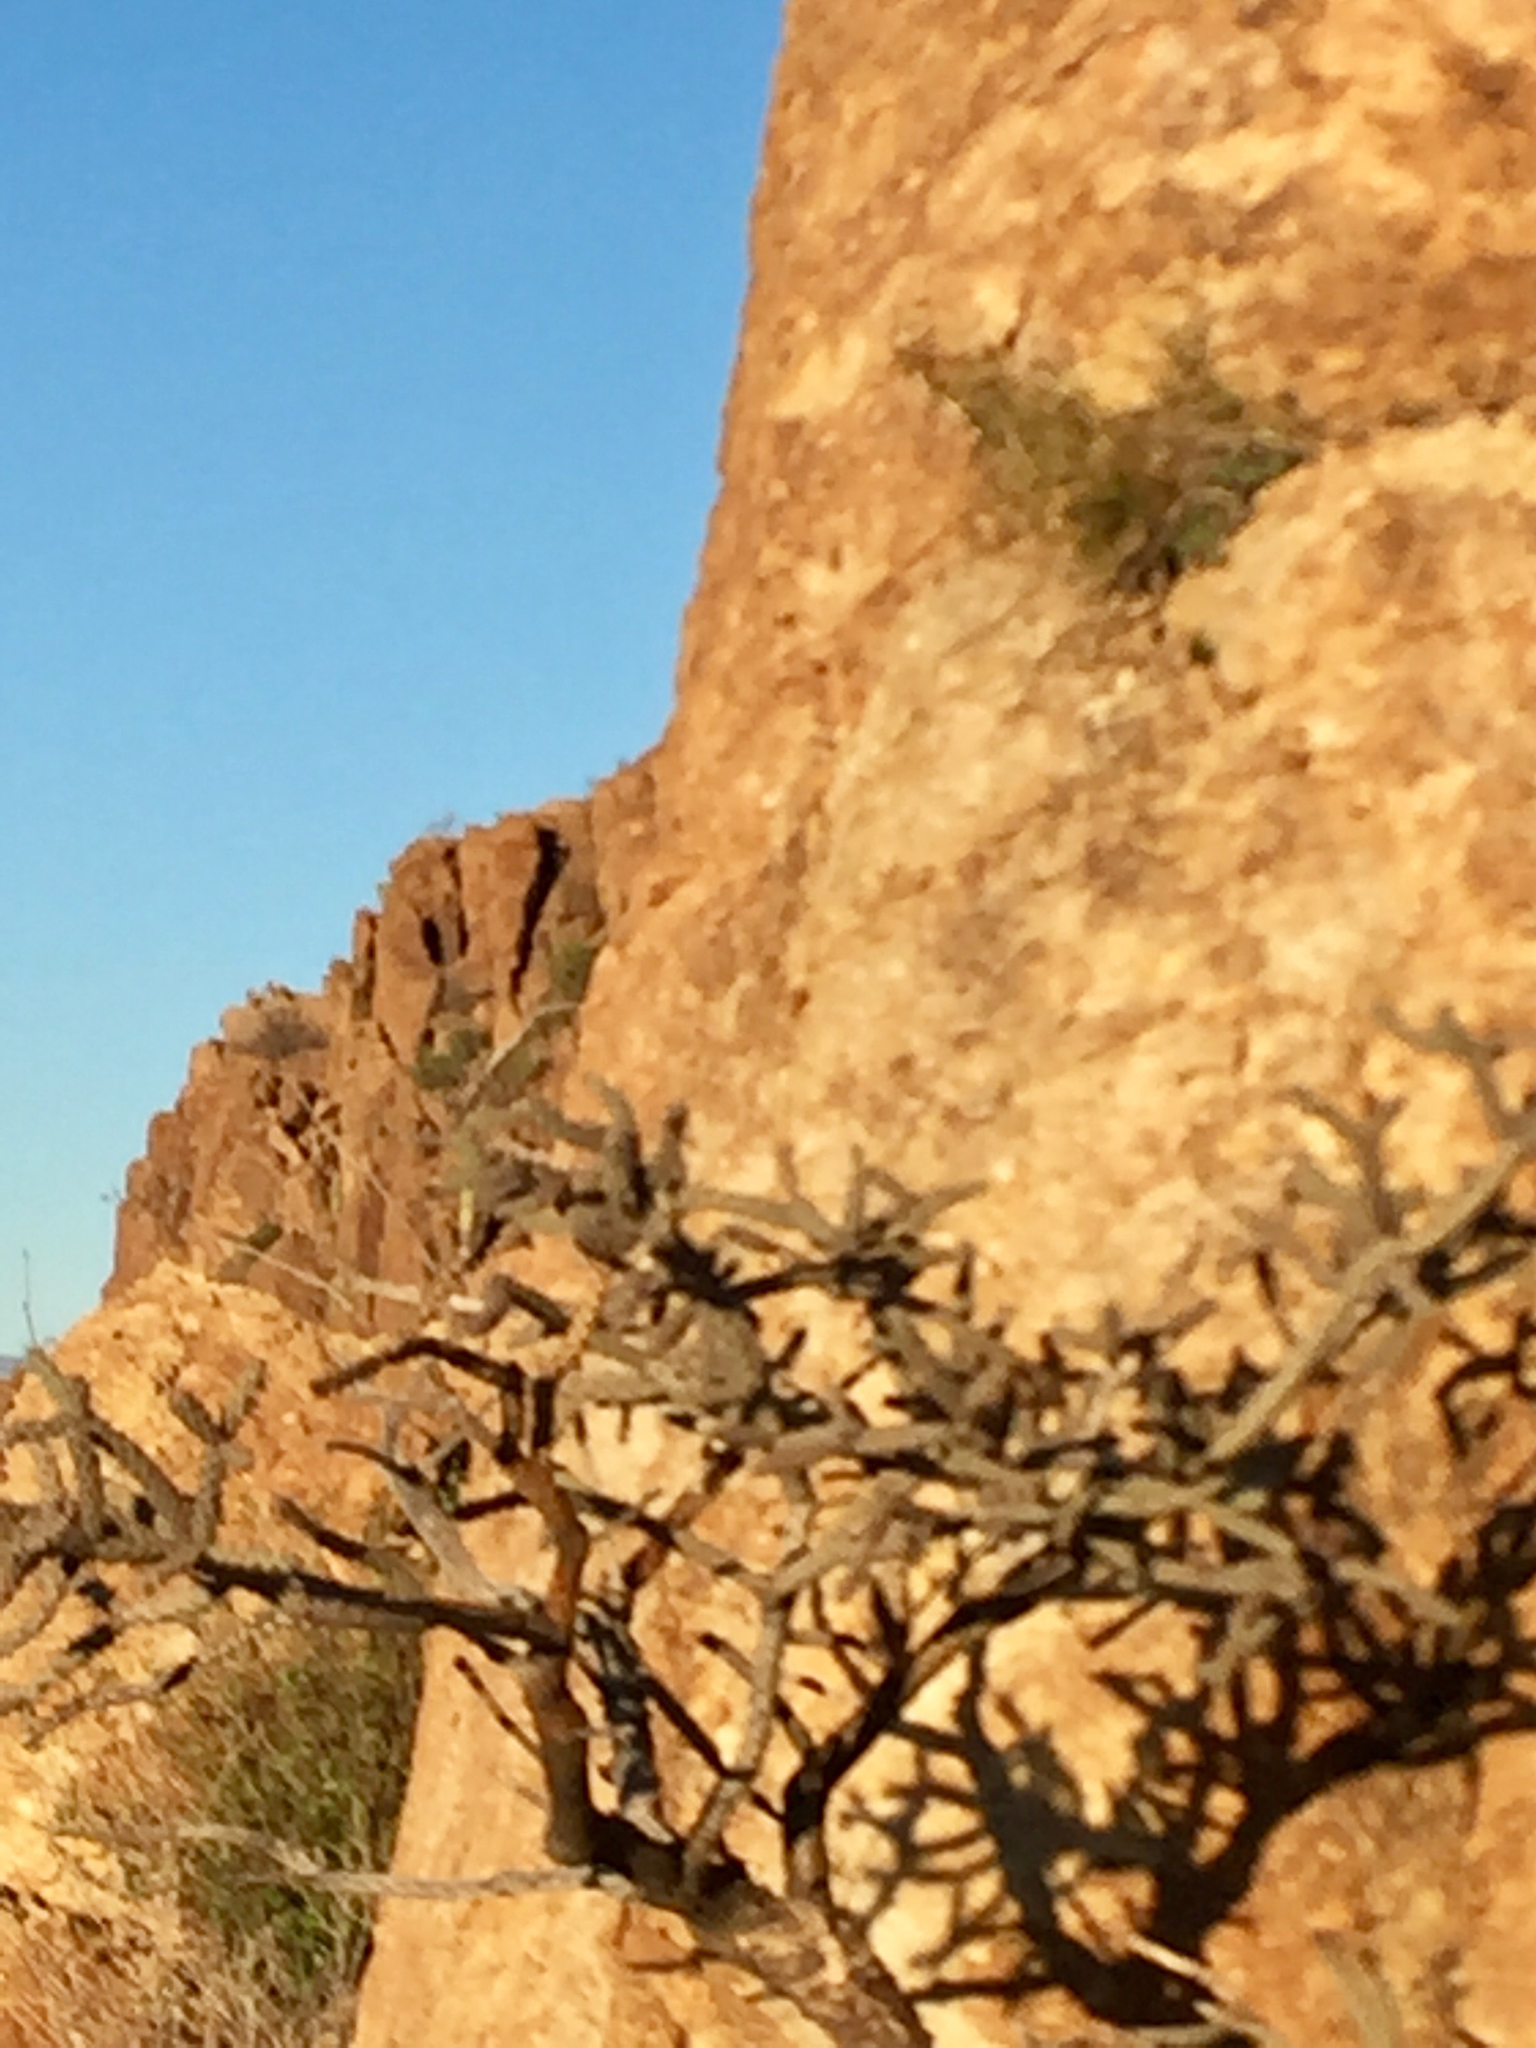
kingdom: Plantae
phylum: Tracheophyta
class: Magnoliopsida
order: Caryophyllales
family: Cactaceae
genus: Cylindropuntia
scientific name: Cylindropuntia acanthocarpa
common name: Buckhorn cholla
